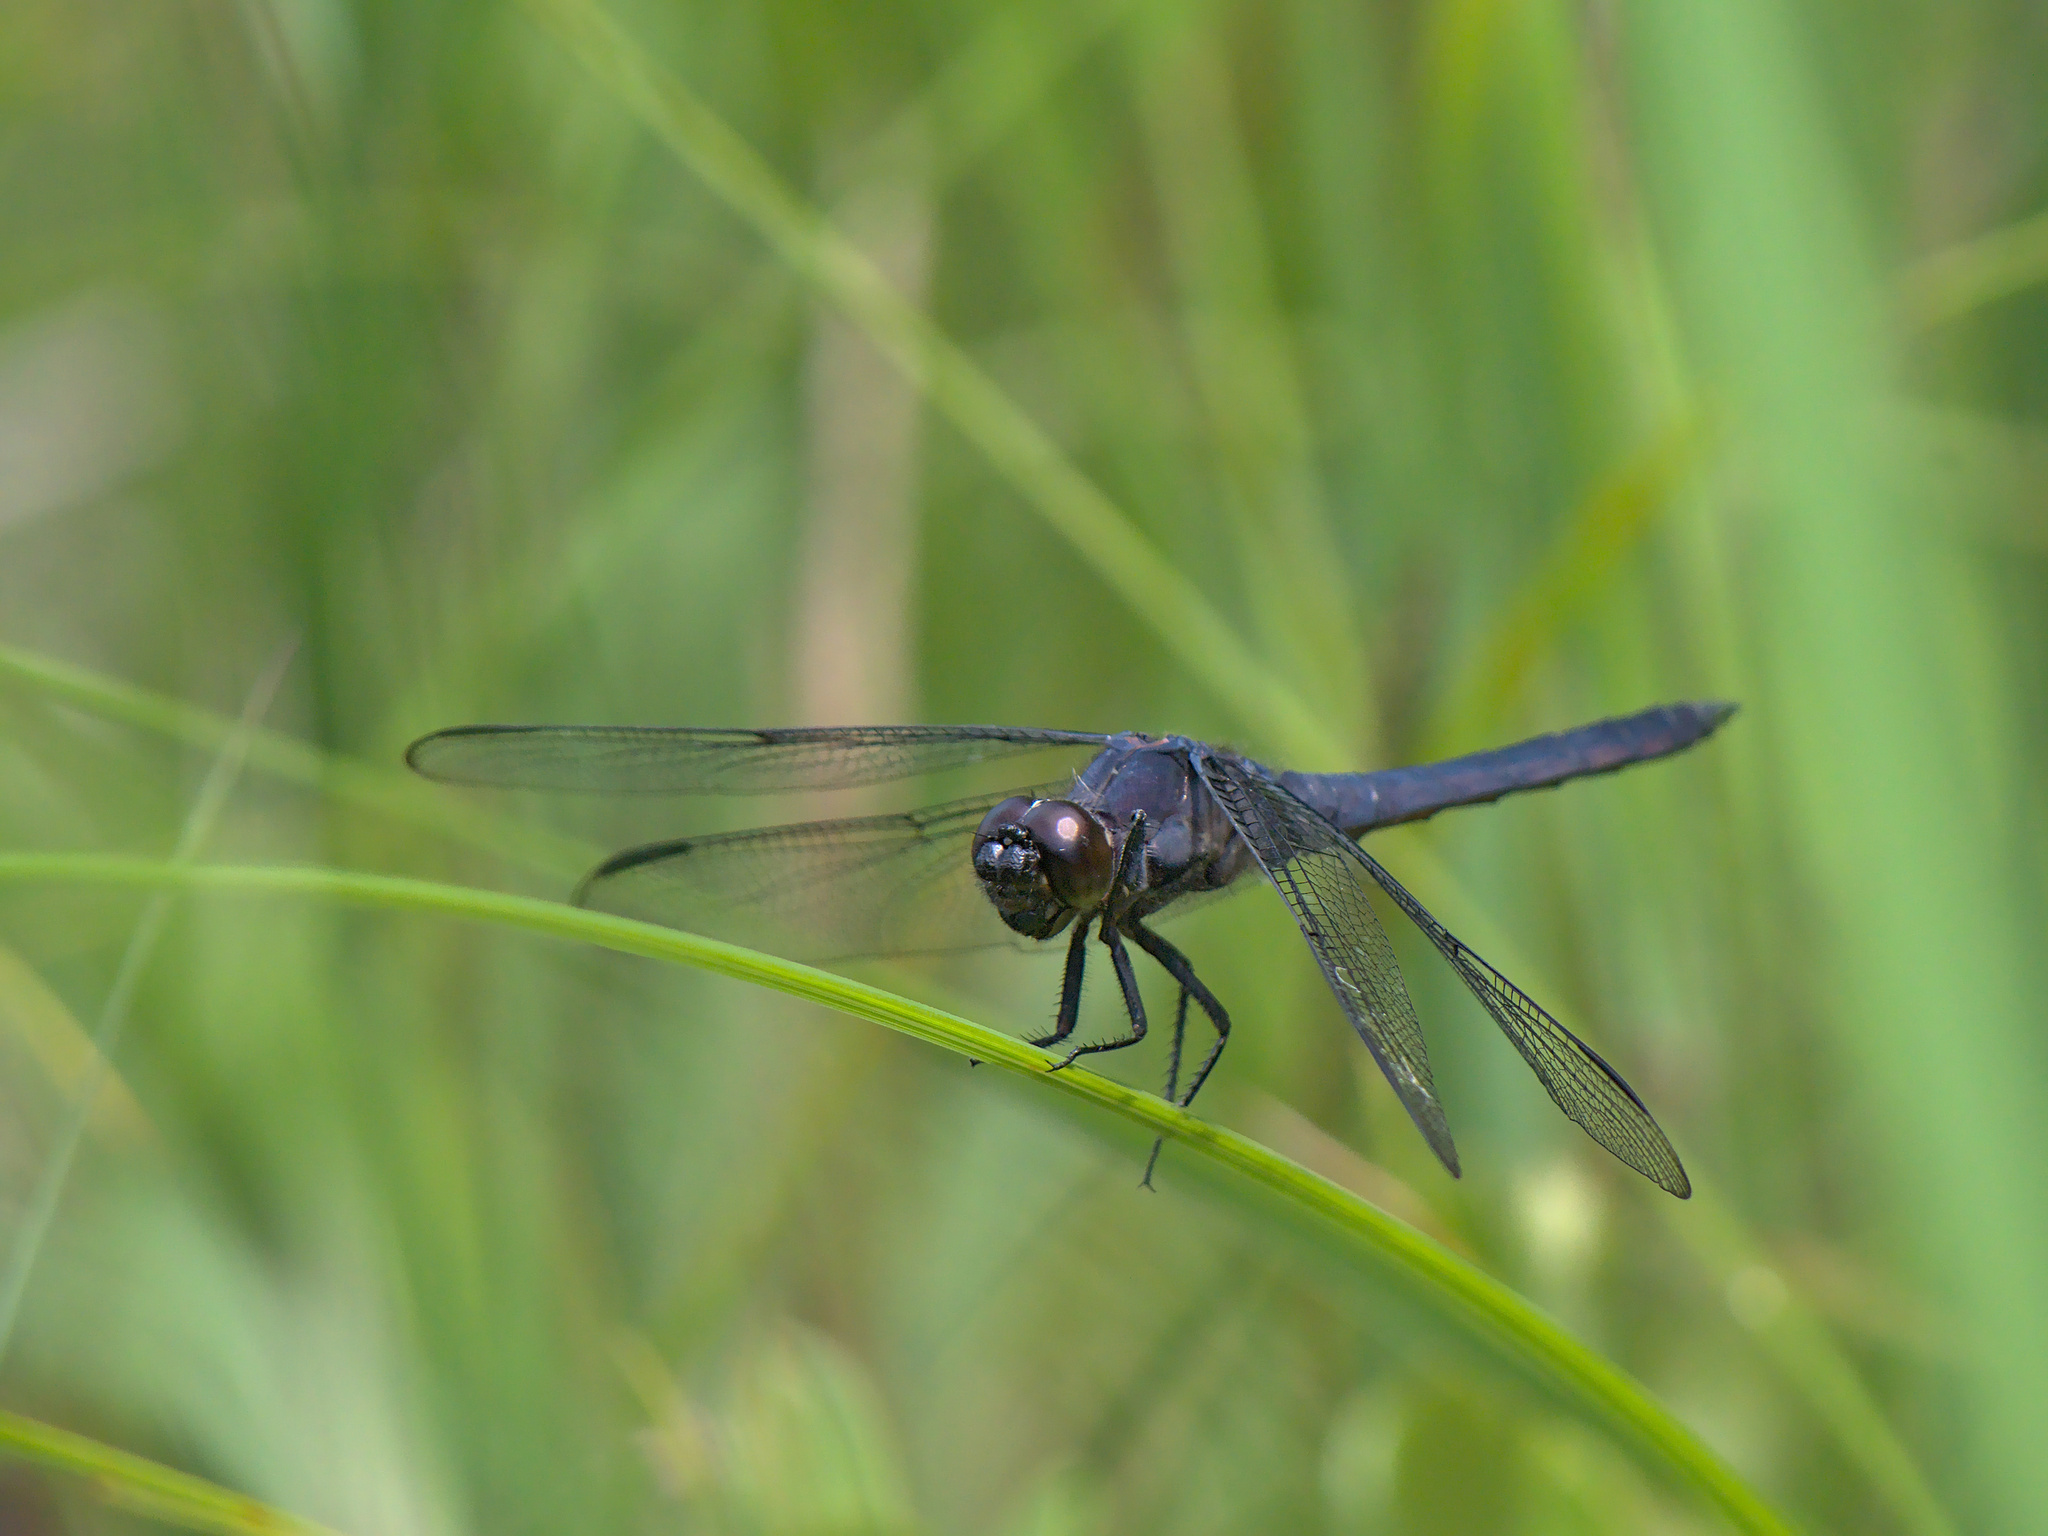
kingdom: Animalia
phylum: Arthropoda
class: Insecta
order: Odonata
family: Libellulidae
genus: Libellula
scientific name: Libellula incesta
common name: Slaty skimmer
